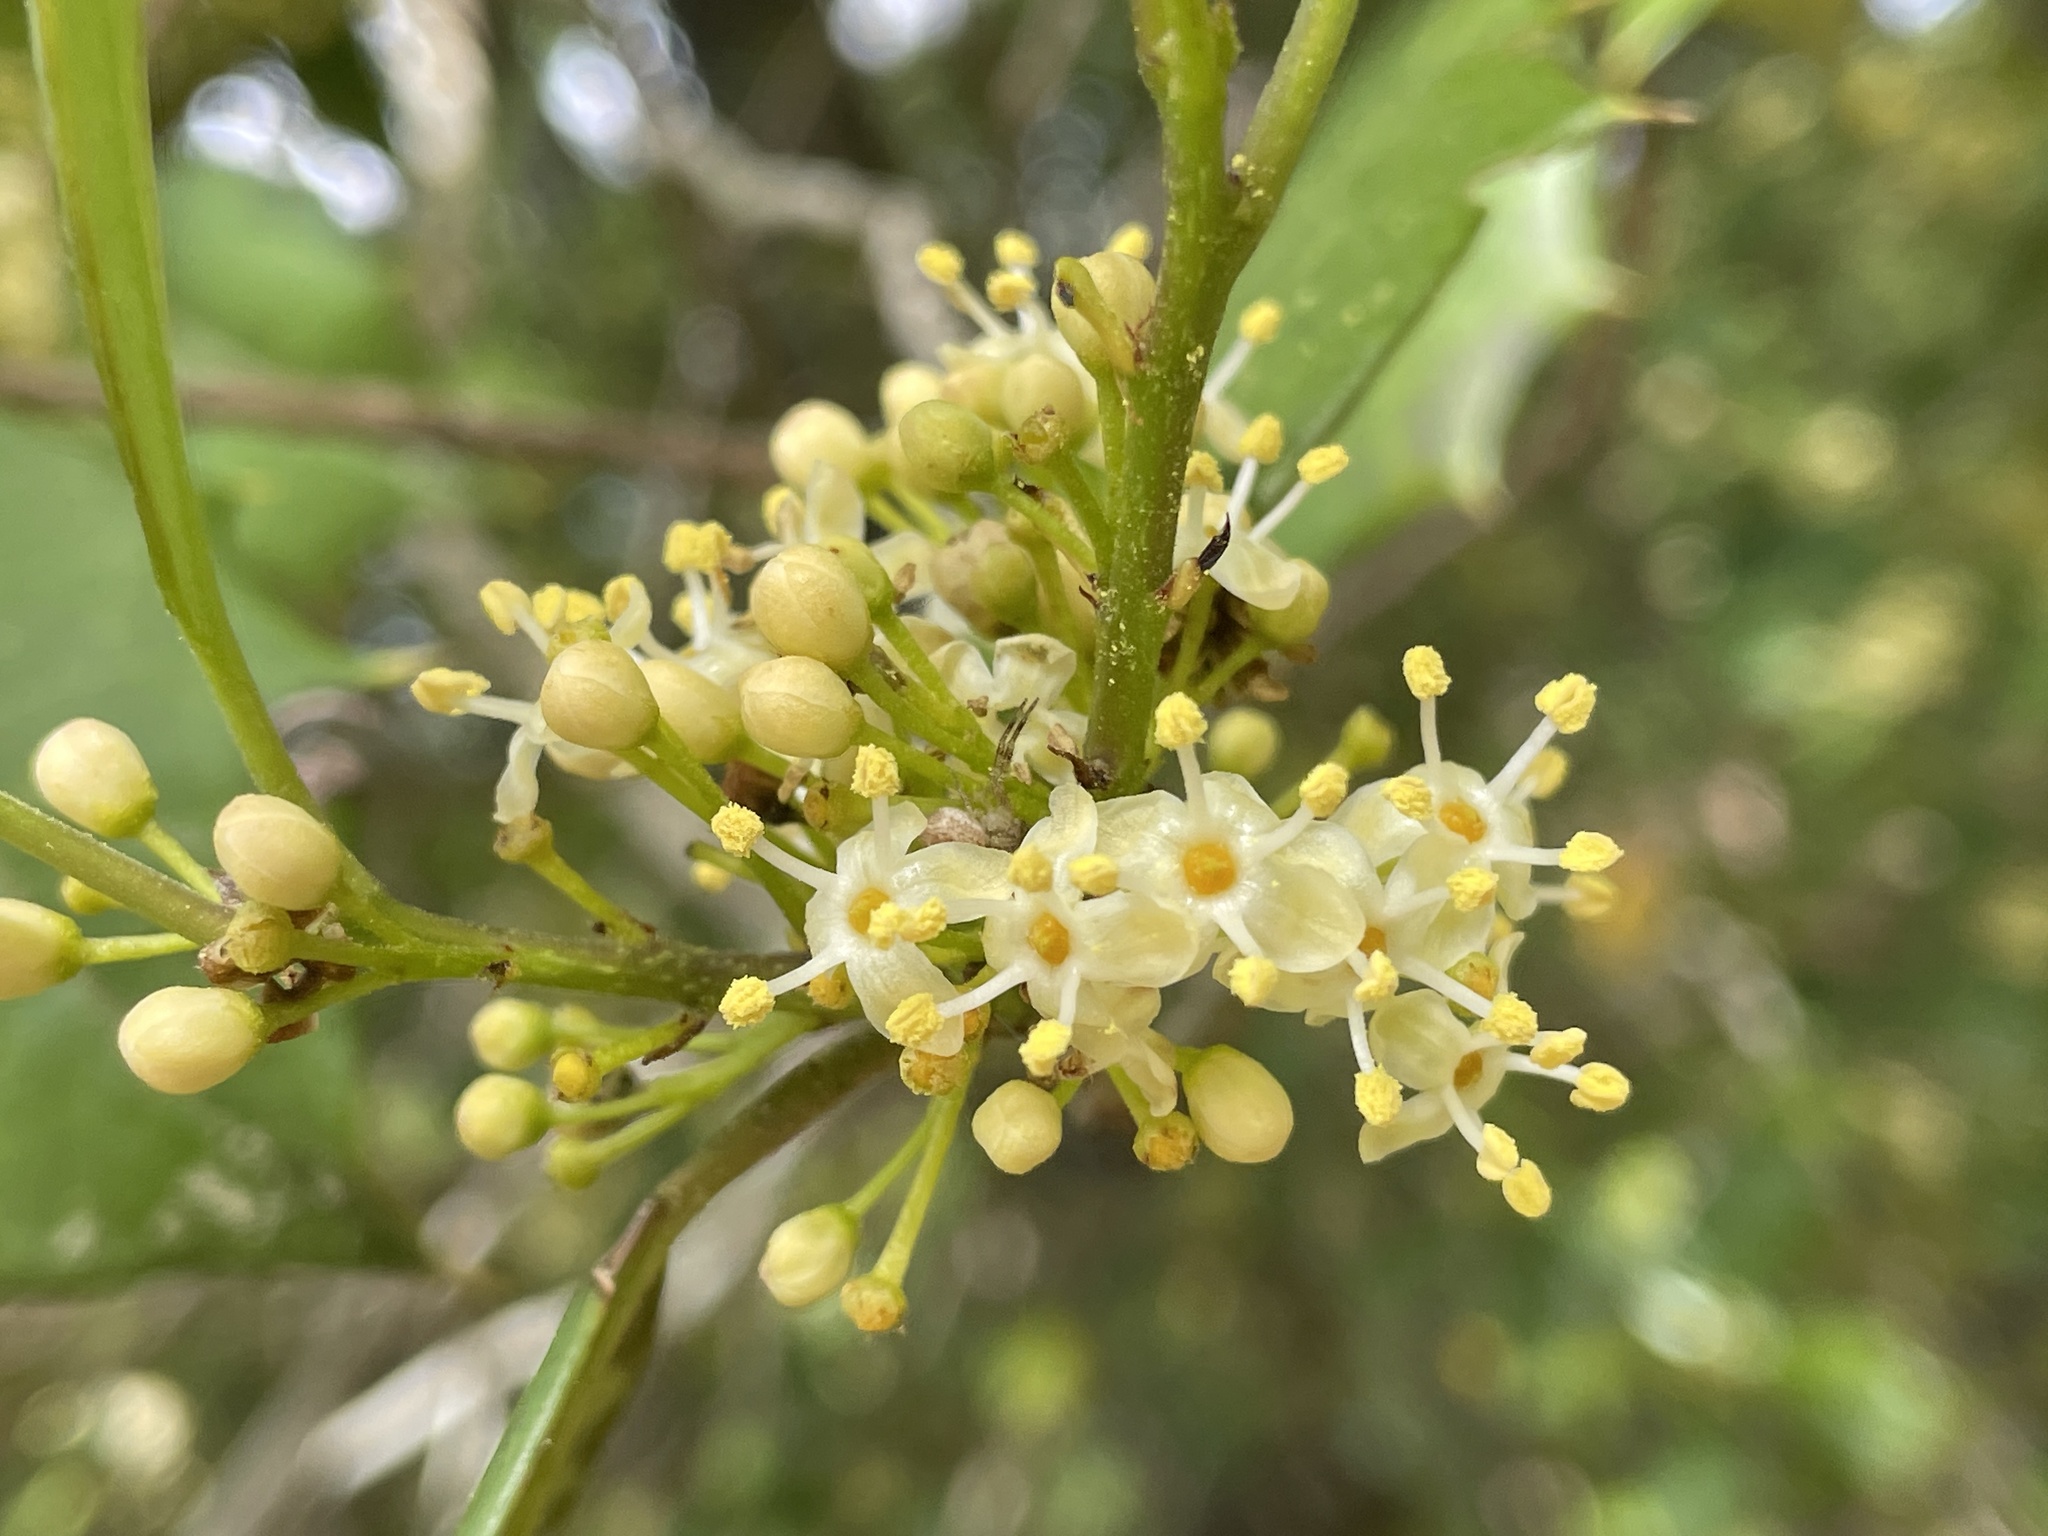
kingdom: Plantae
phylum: Tracheophyta
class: Magnoliopsida
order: Aquifoliales
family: Aquifoliaceae
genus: Ilex
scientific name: Ilex opaca
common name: American holly
